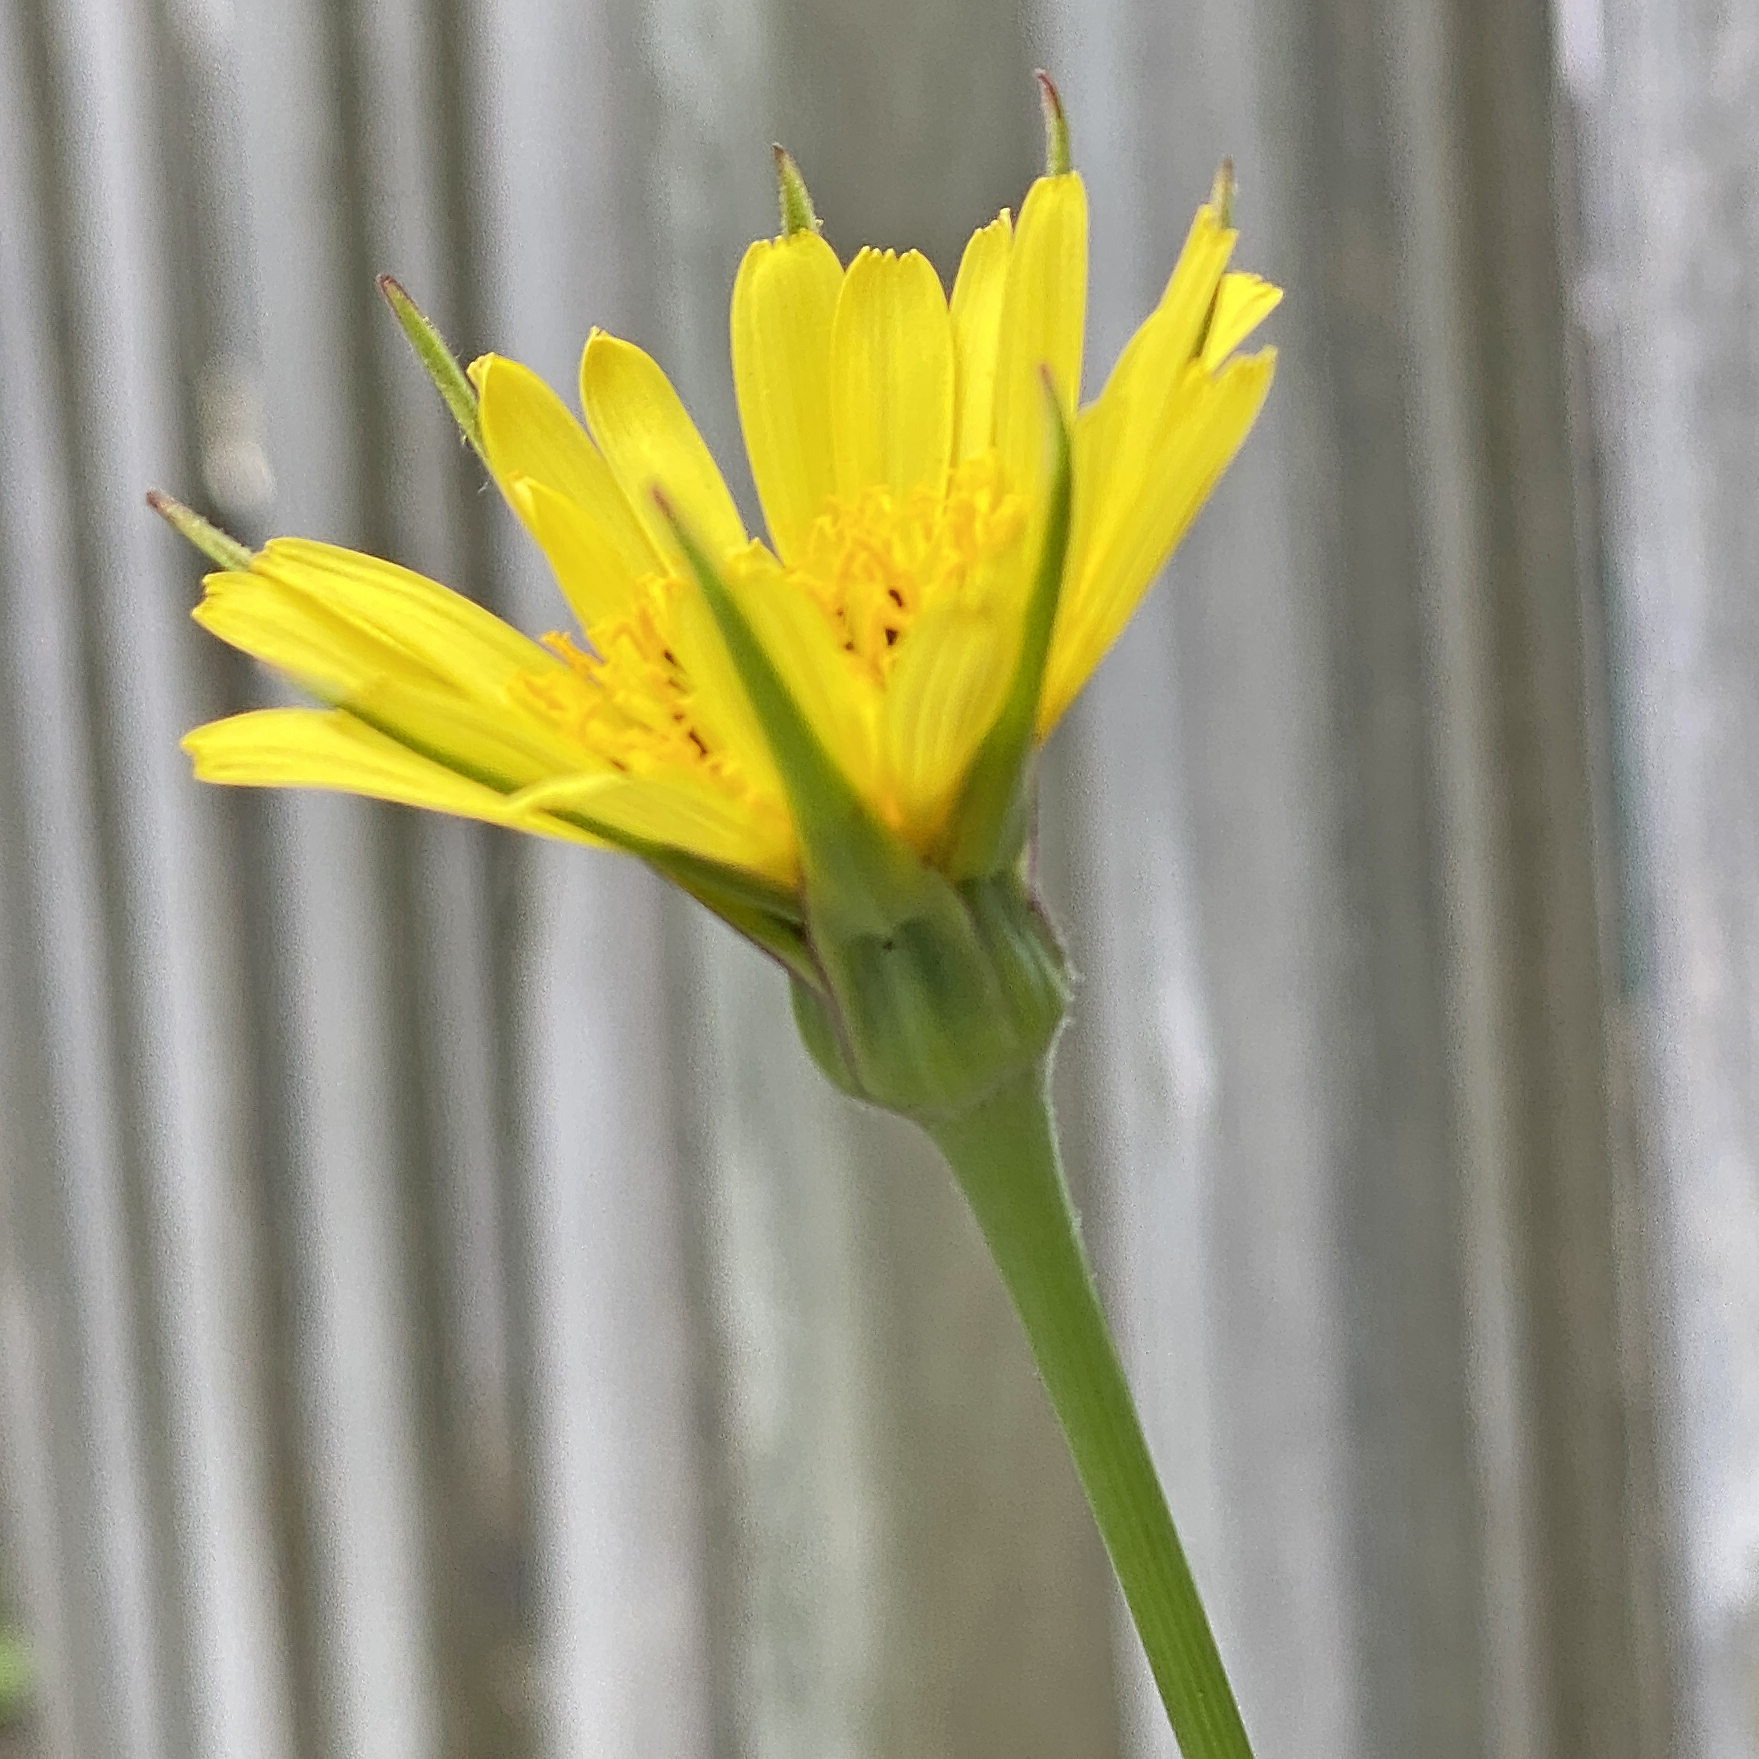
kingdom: Plantae
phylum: Tracheophyta
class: Magnoliopsida
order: Asterales
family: Asteraceae
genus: Tragopogon
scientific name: Tragopogon pratensis
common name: Goat's-beard
